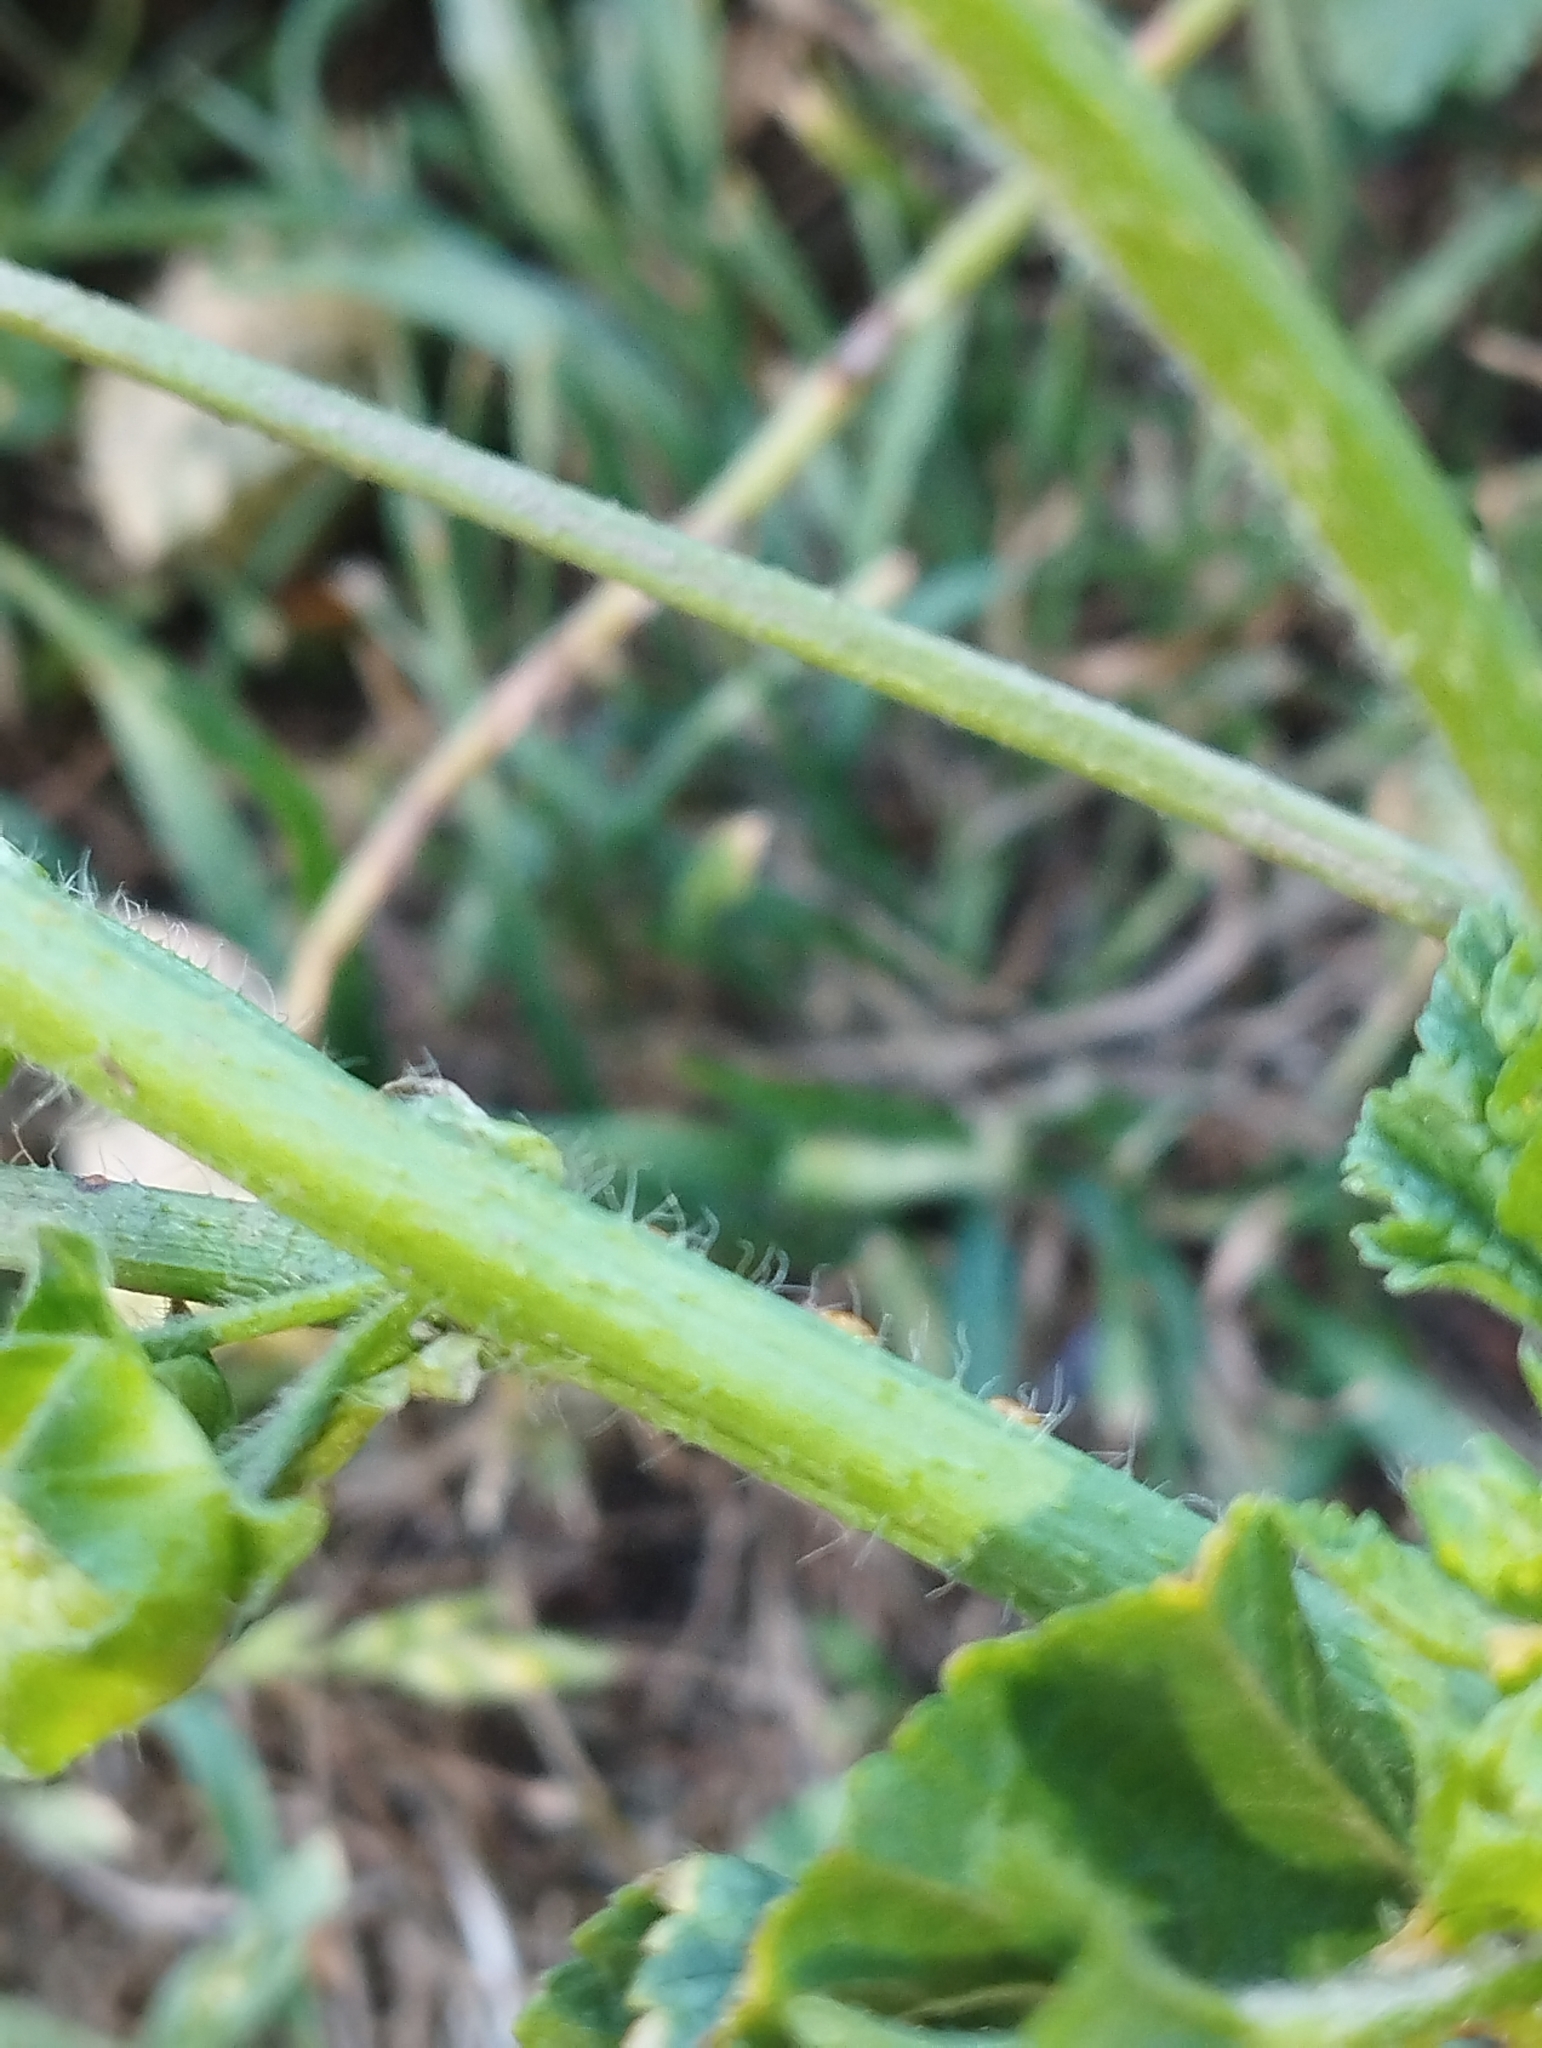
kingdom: Plantae
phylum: Tracheophyta
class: Magnoliopsida
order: Malvales
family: Malvaceae
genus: Malva
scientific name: Malva nicaeensis
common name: French mallow
